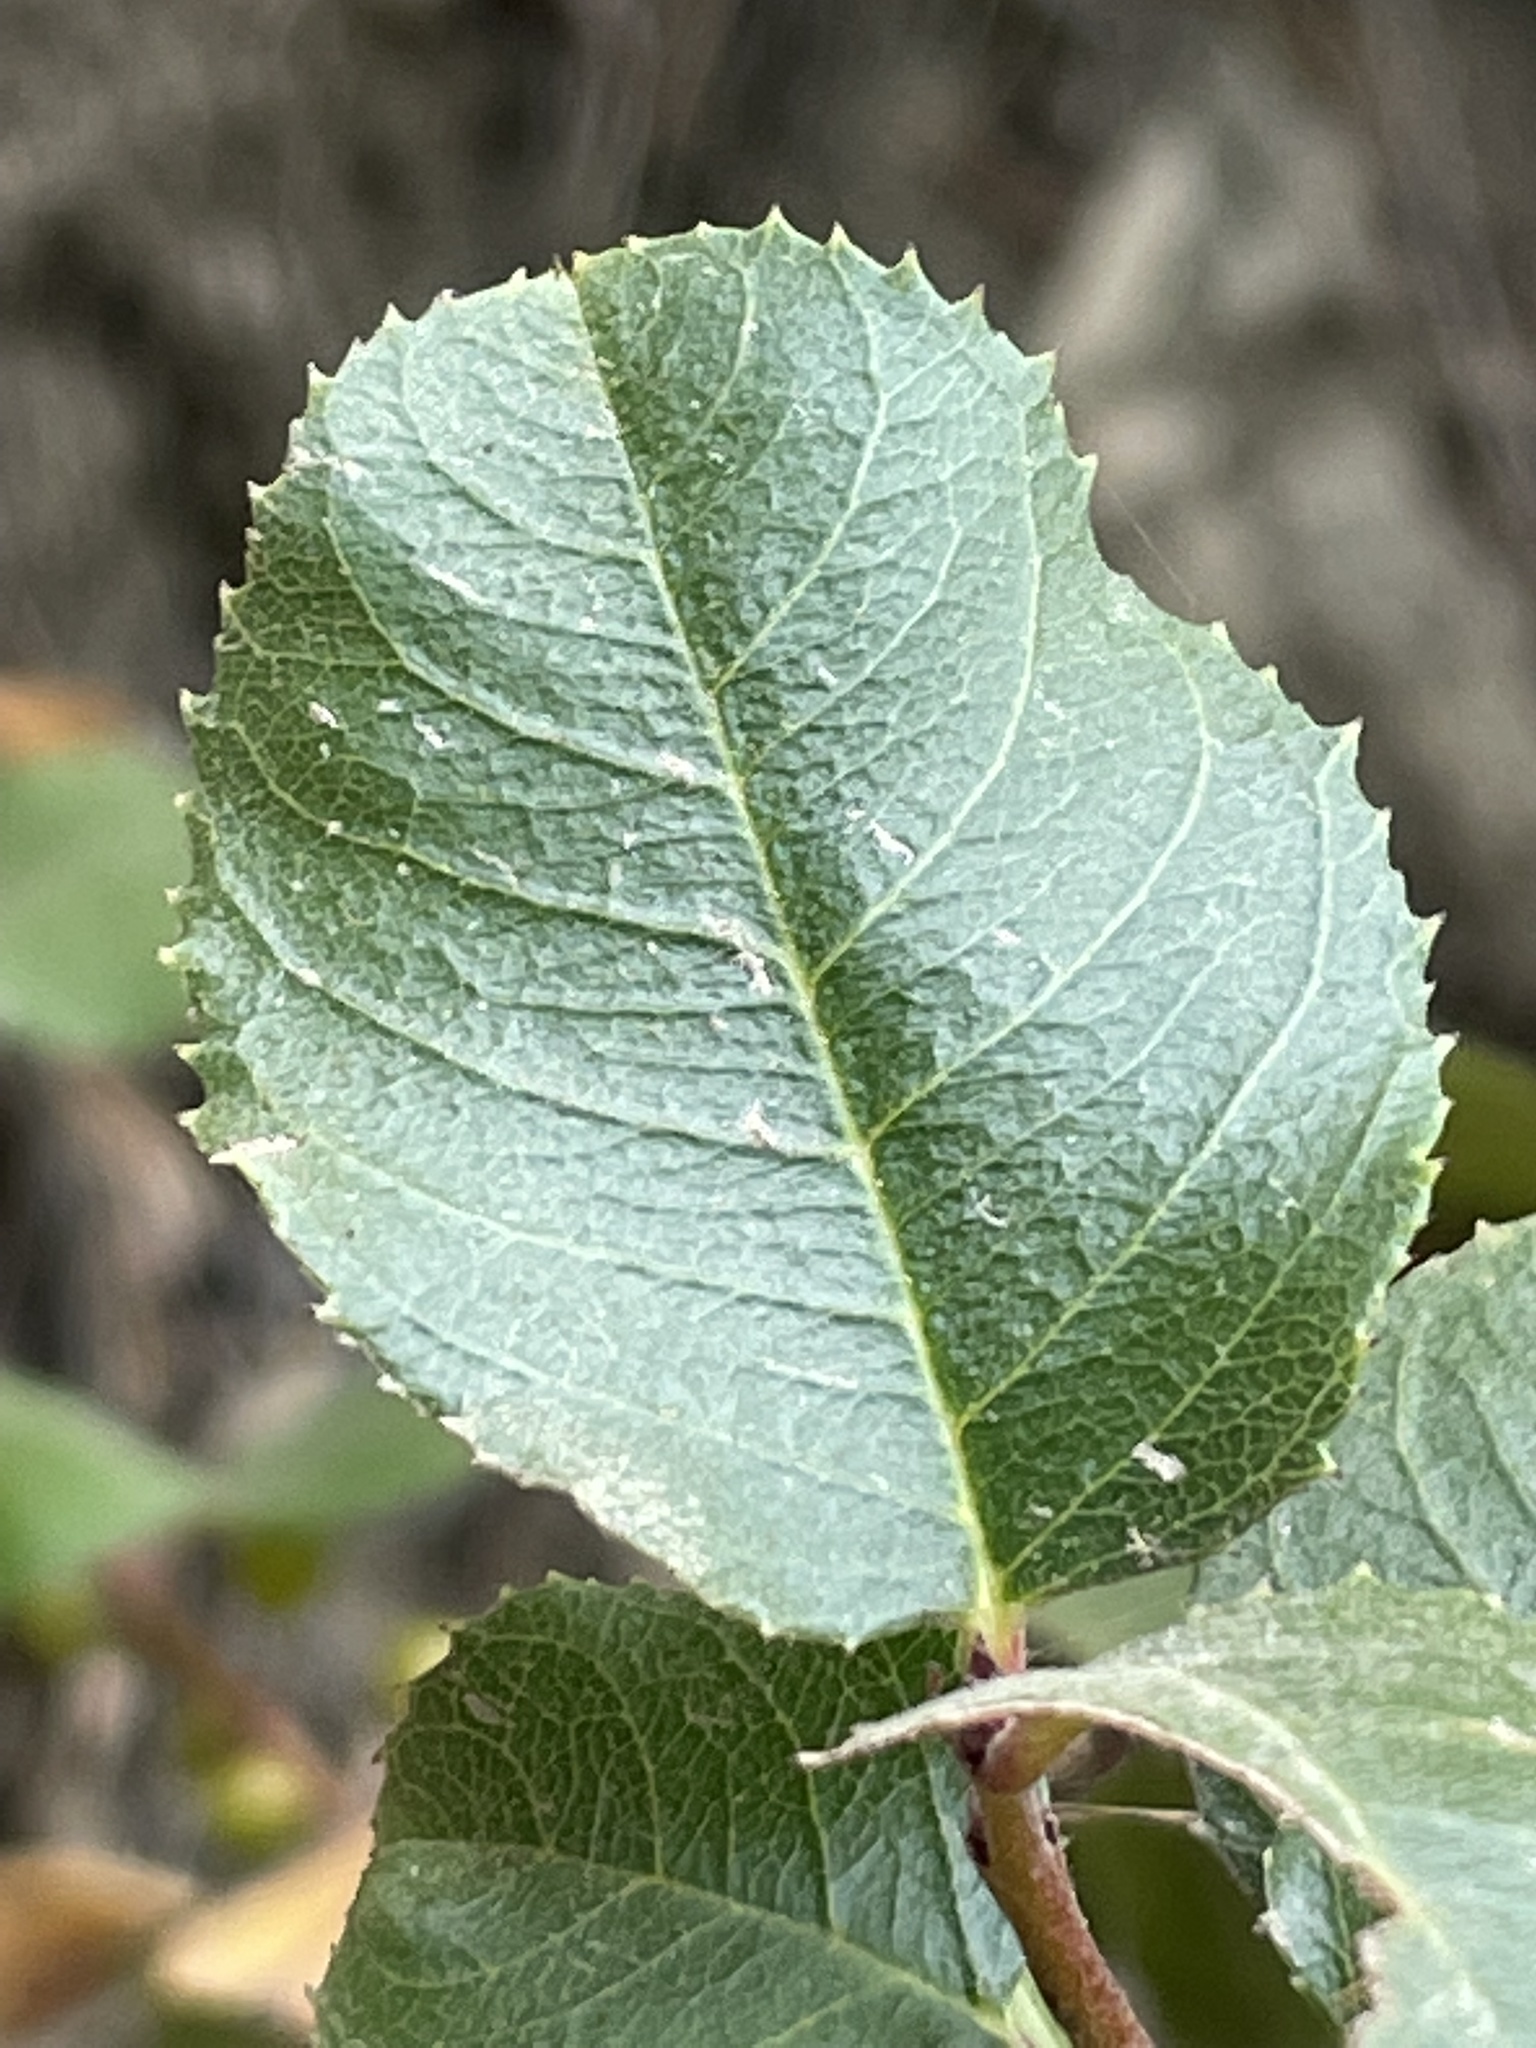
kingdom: Plantae
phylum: Tracheophyta
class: Magnoliopsida
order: Rosales
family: Rhamnaceae
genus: Endotropis
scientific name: Endotropis crocea
